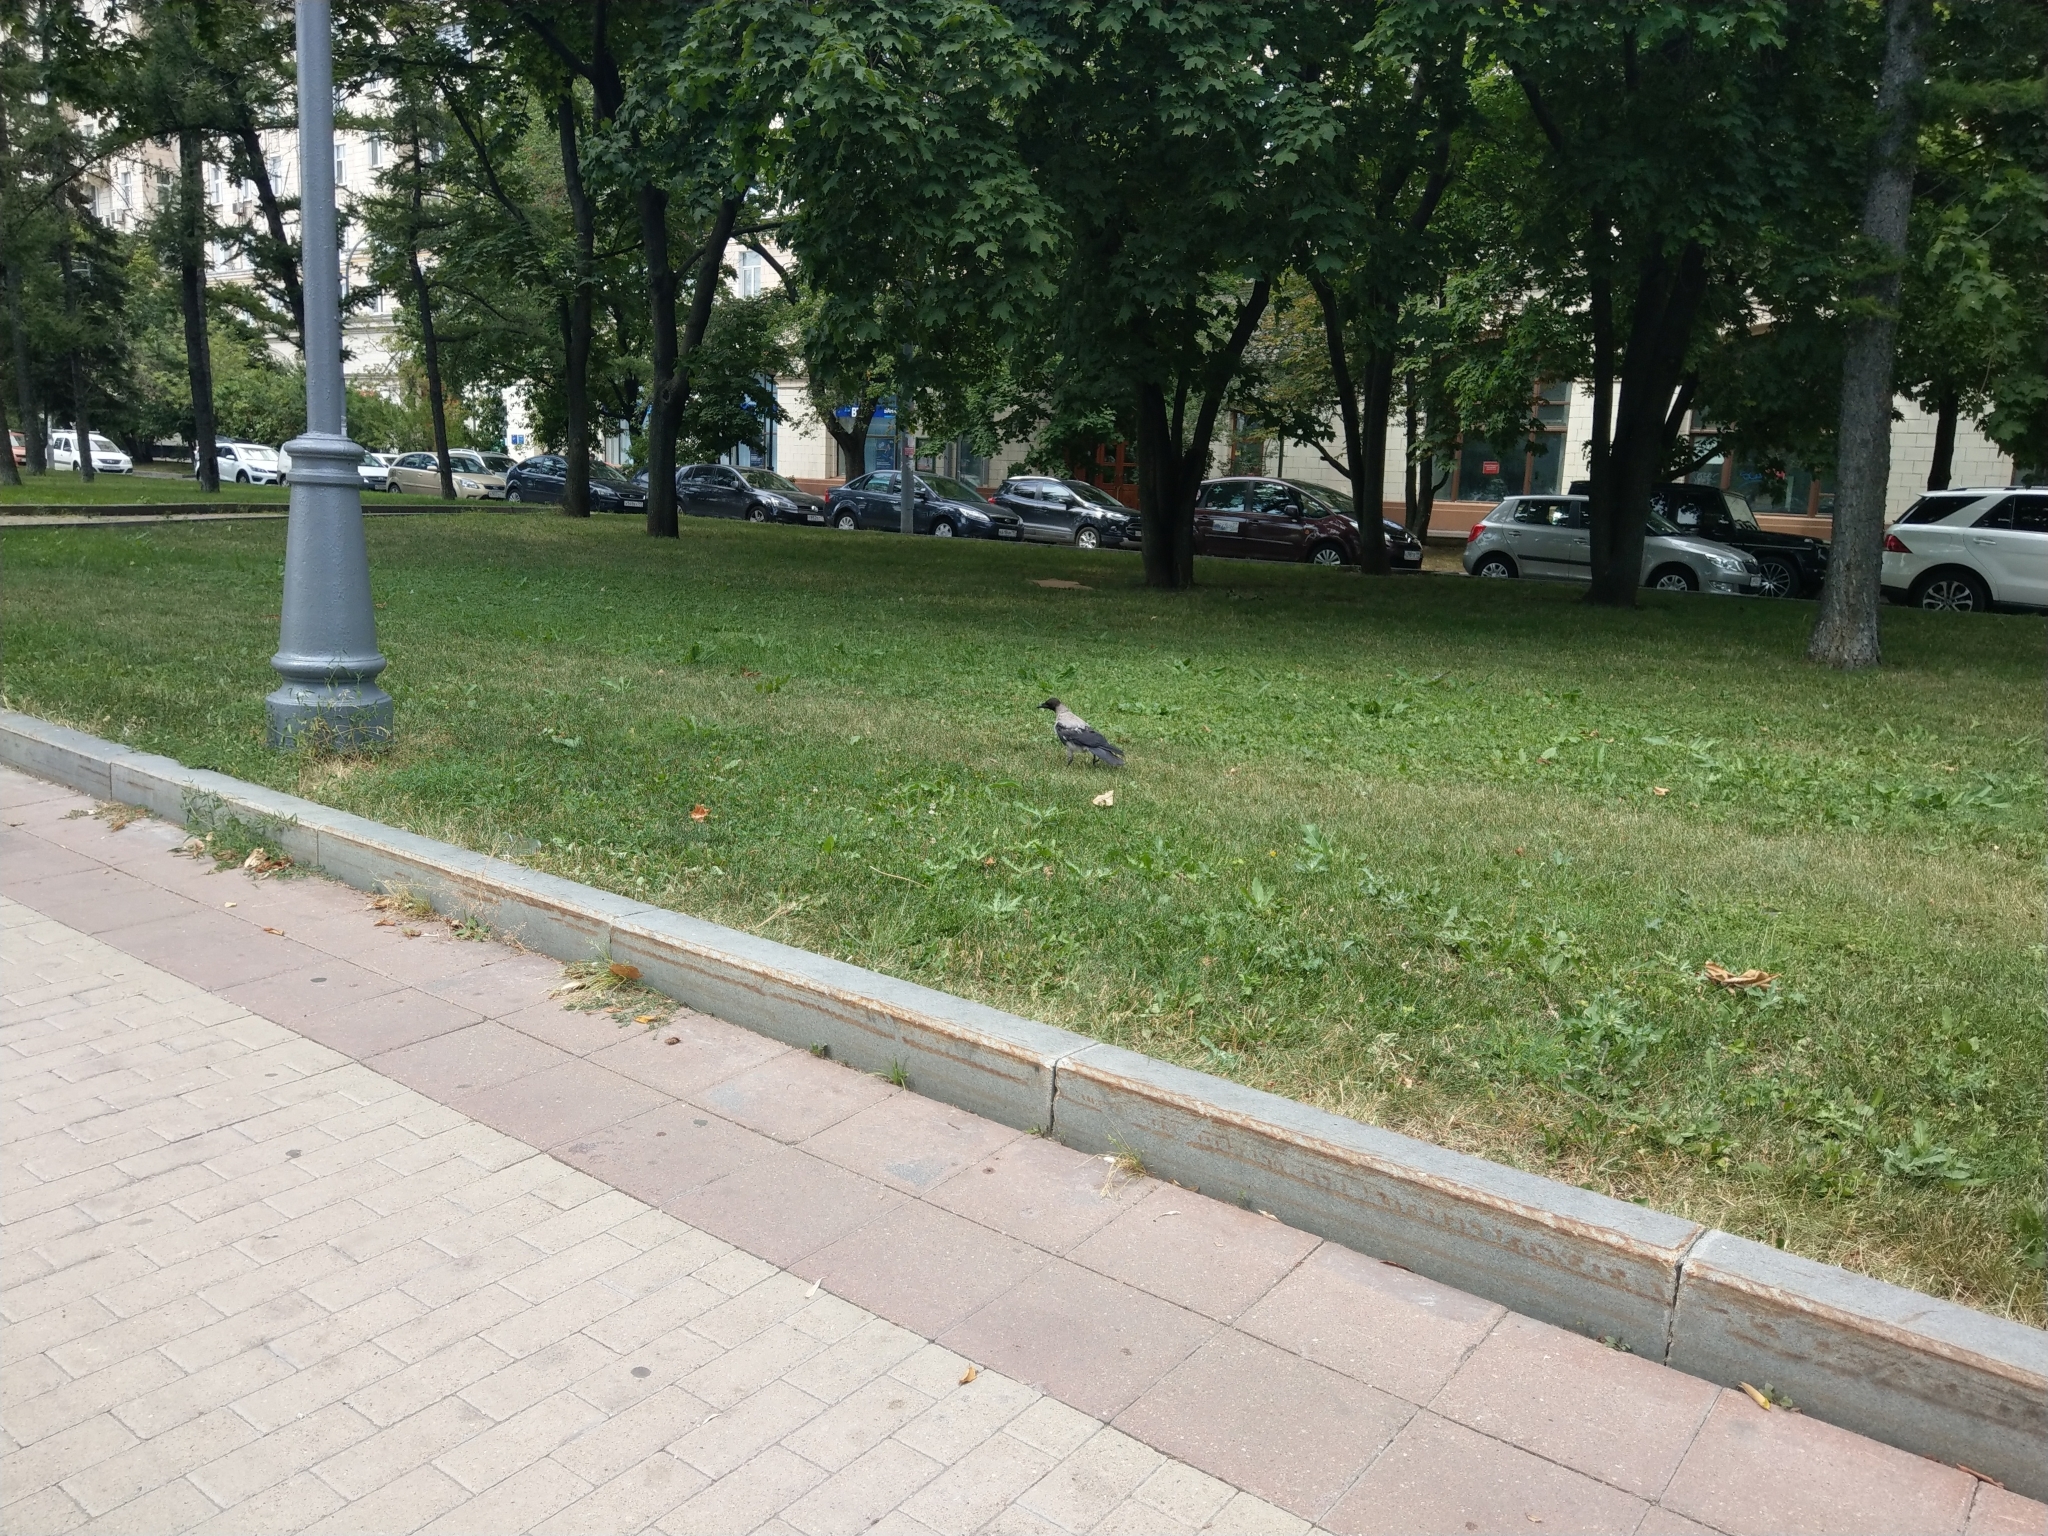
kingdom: Animalia
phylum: Chordata
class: Aves
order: Passeriformes
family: Corvidae
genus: Corvus
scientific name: Corvus cornix
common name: Hooded crow
